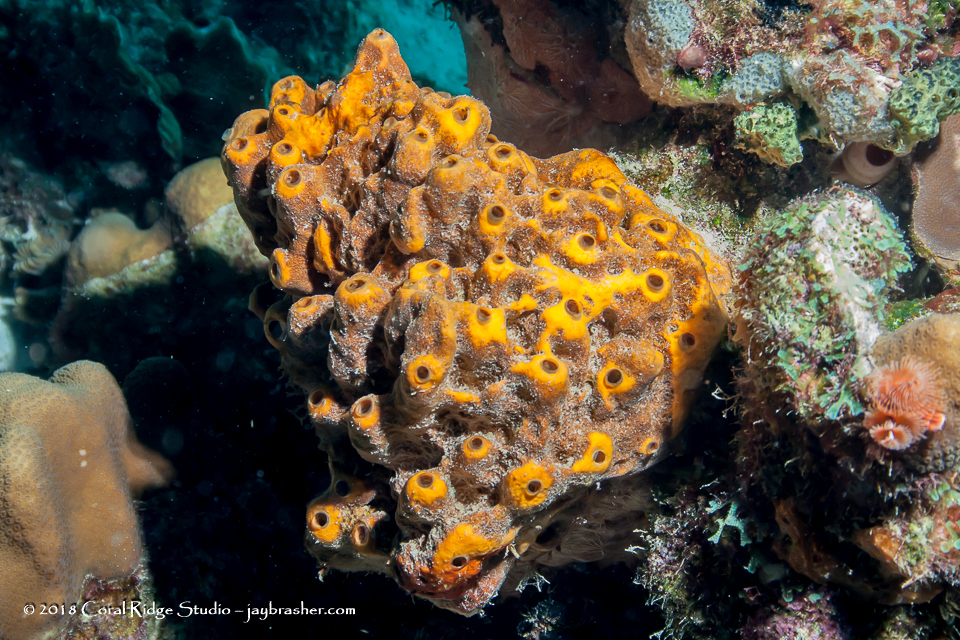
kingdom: Animalia
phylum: Porifera
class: Demospongiae
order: Axinellida
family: Raspailiidae
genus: Ectyoplasia
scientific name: Ectyoplasia ferox
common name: Brown encrusting octopus sponge
